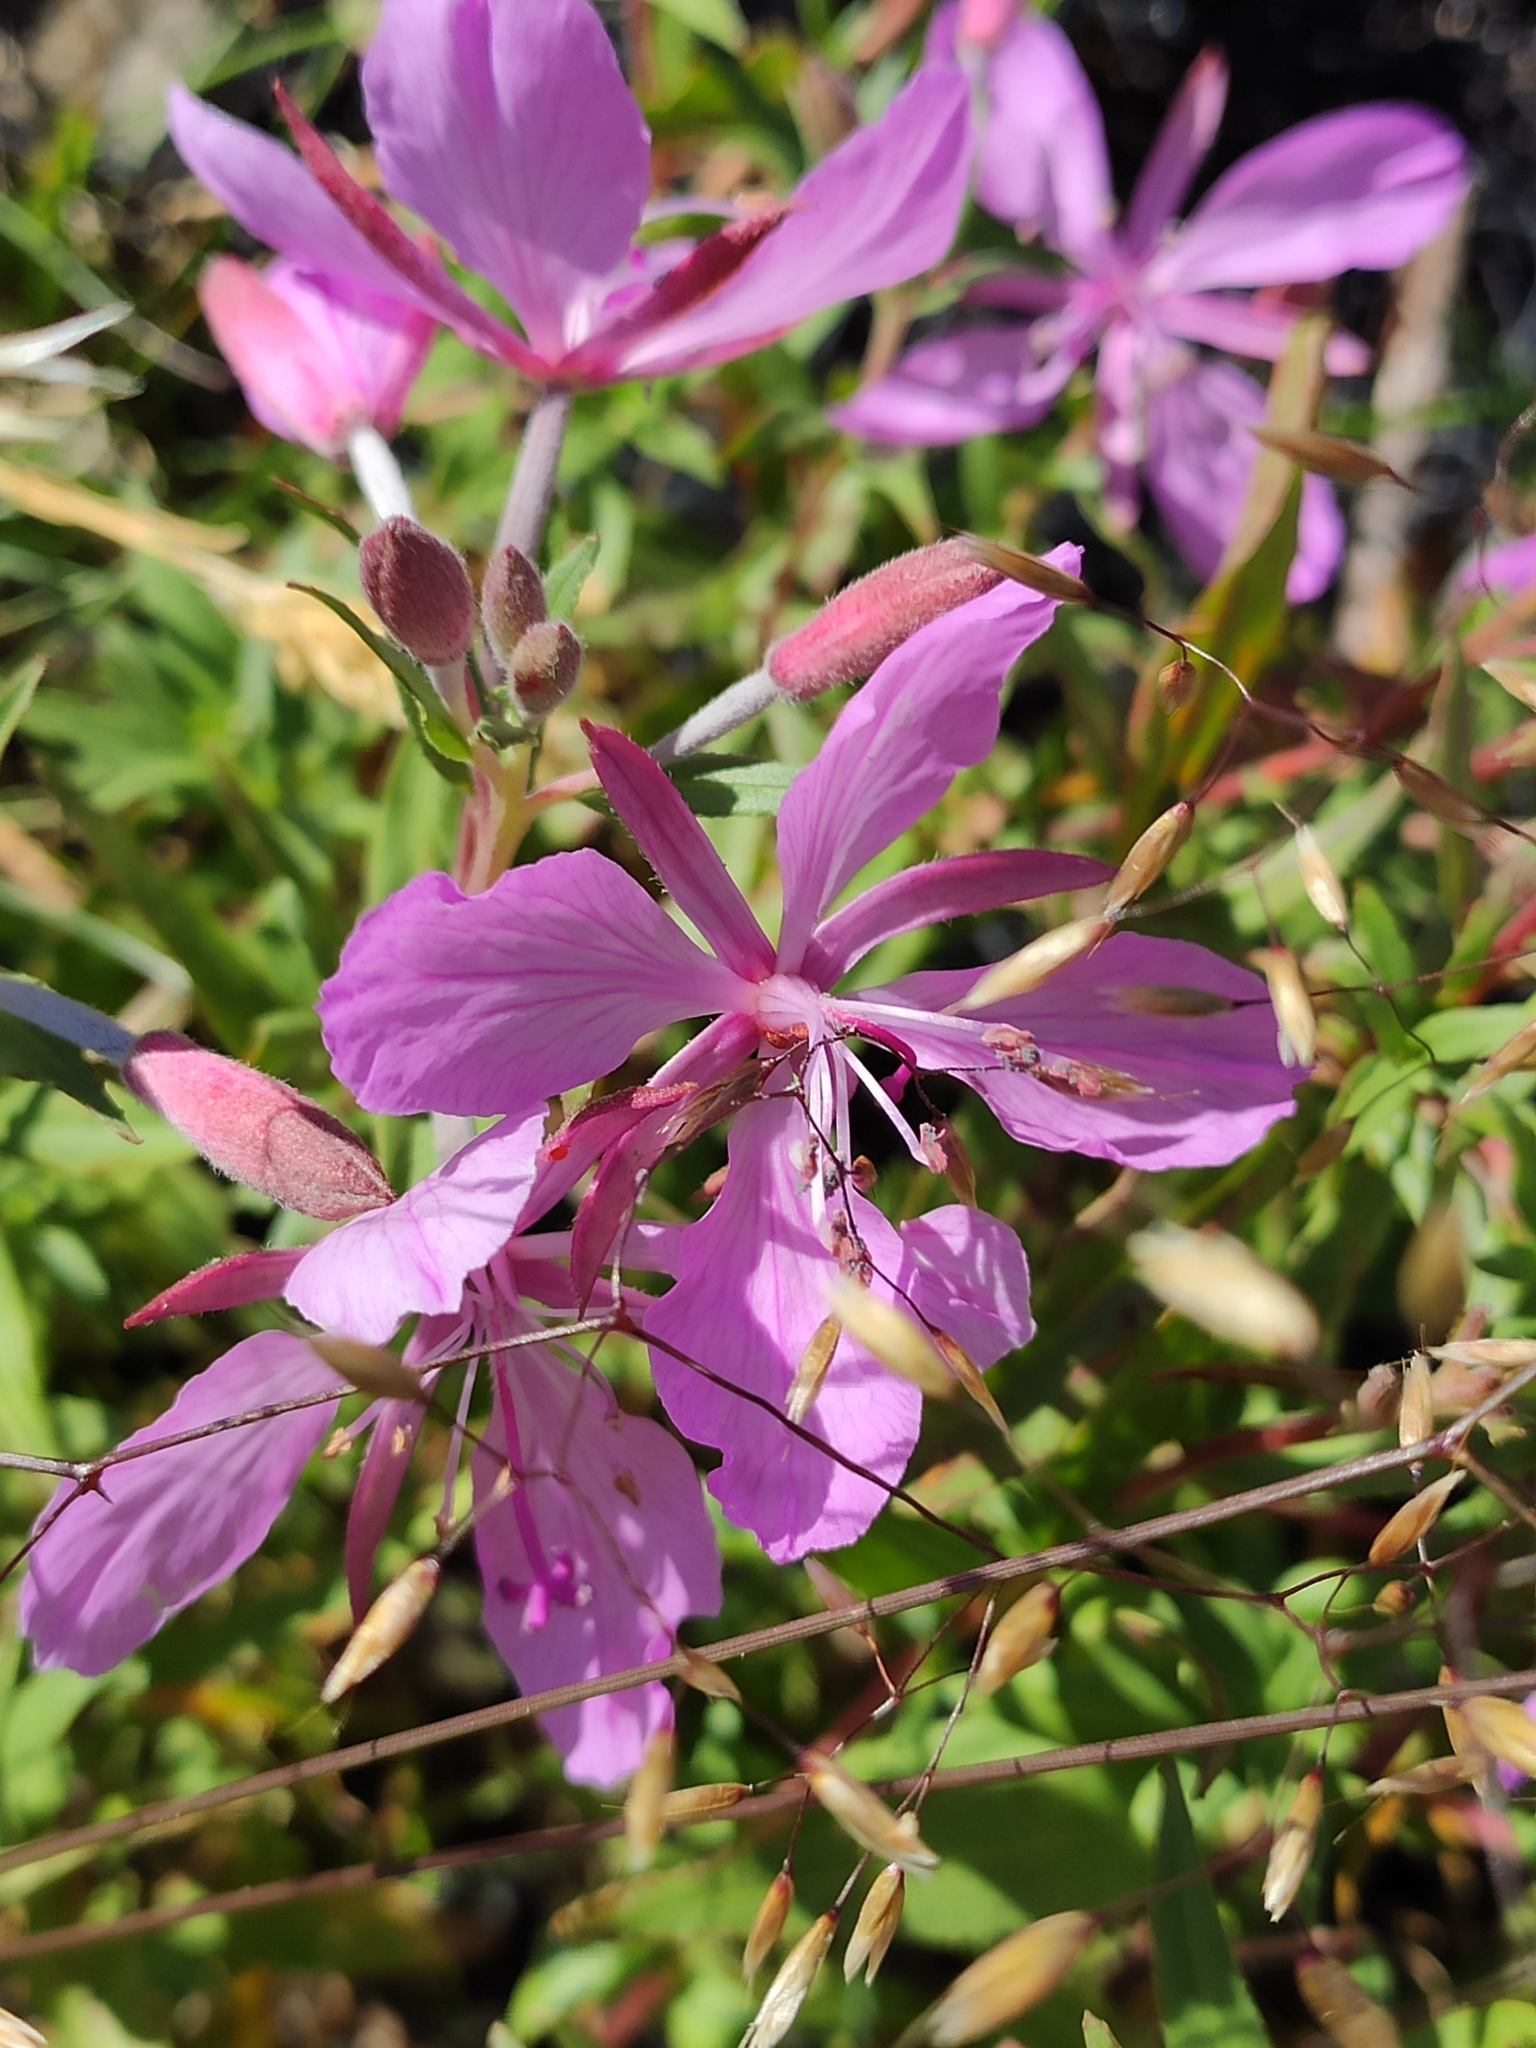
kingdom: Plantae
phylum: Tracheophyta
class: Magnoliopsida
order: Myrtales
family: Onagraceae
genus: Chamaenerion
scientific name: Chamaenerion colchicum
